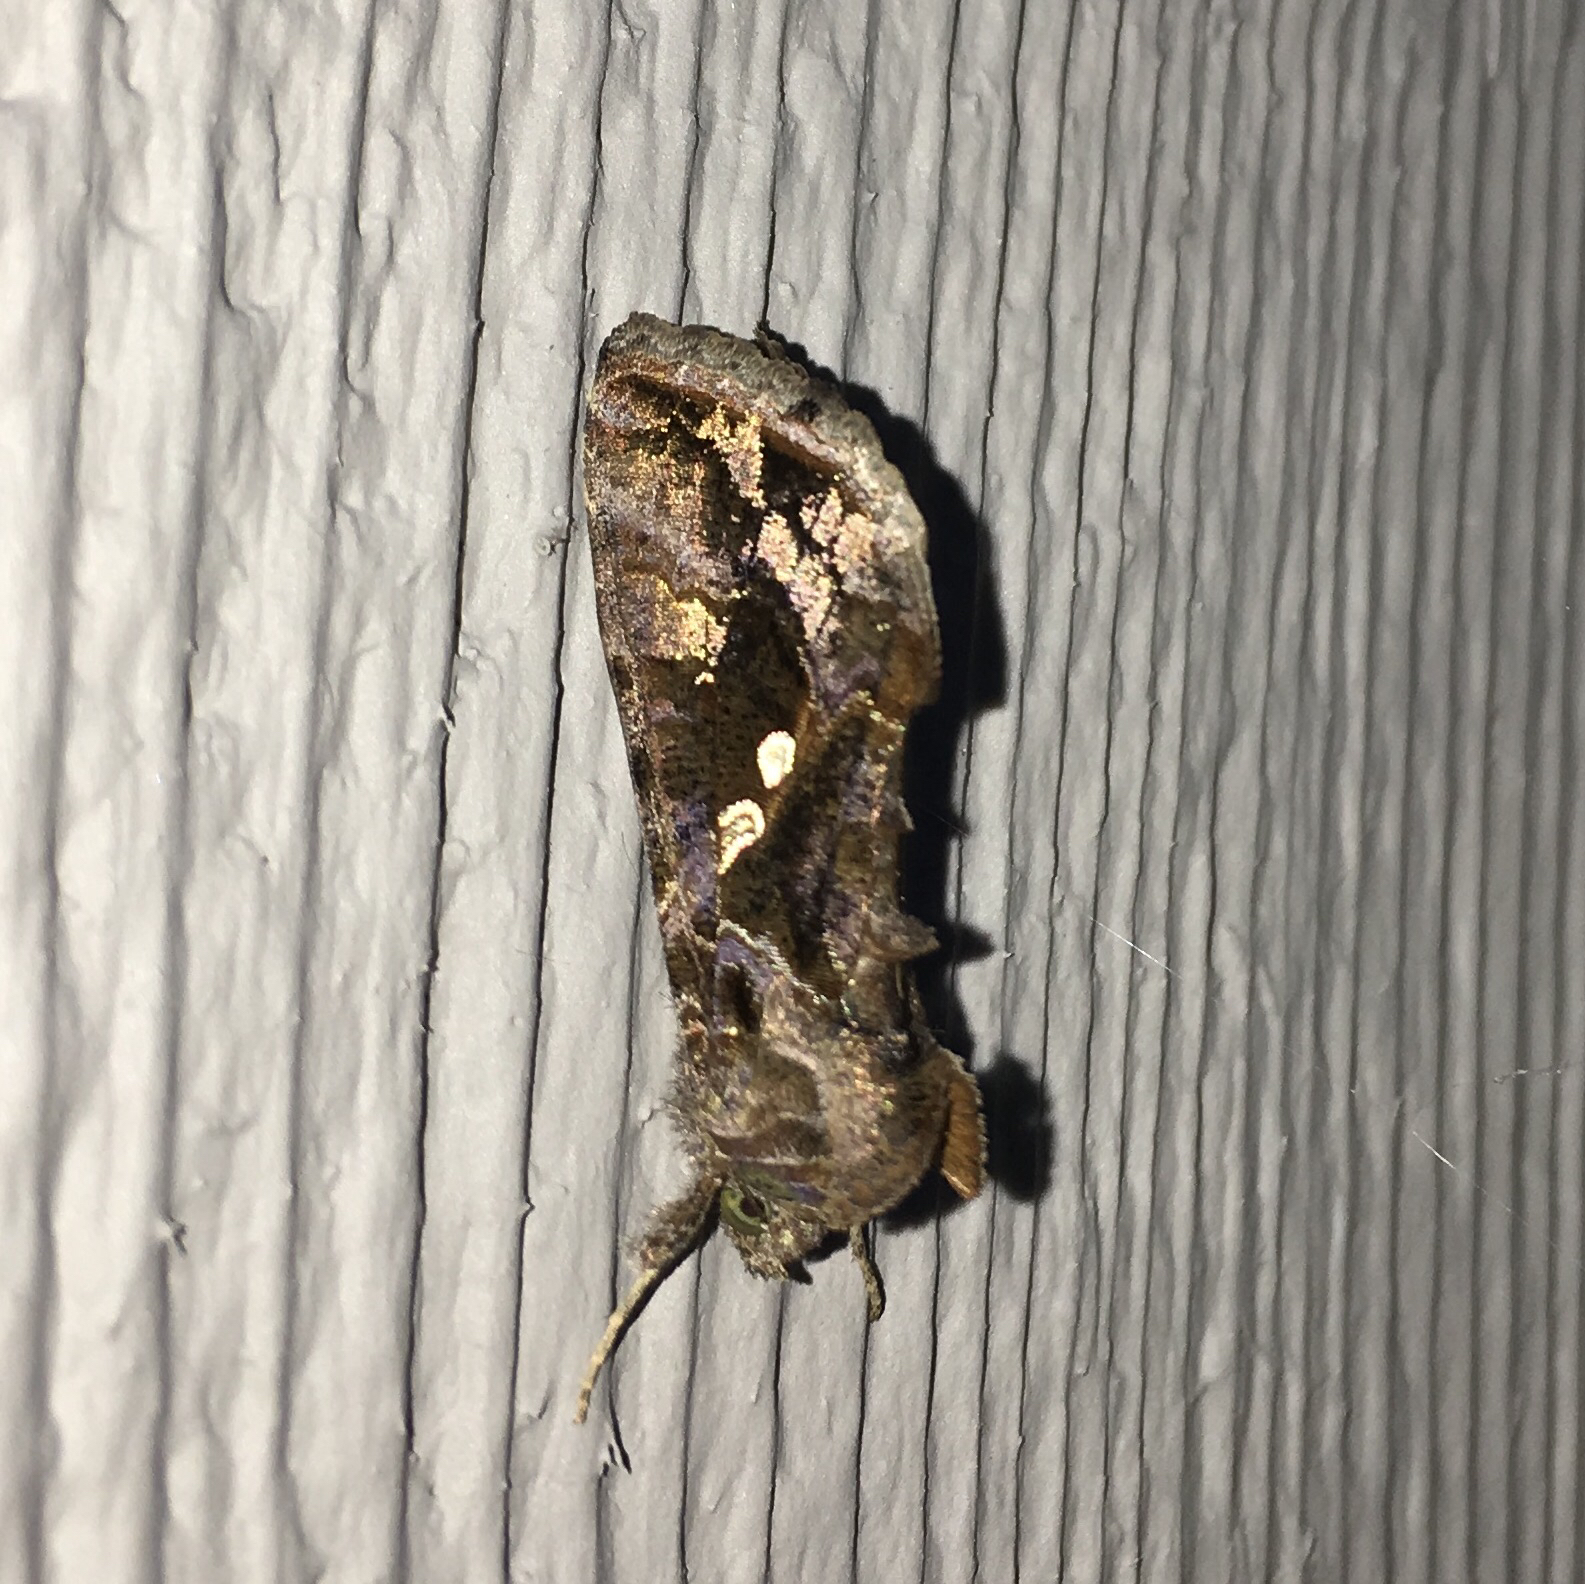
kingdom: Animalia
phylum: Arthropoda
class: Insecta
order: Lepidoptera
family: Noctuidae
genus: Chrysodeixis
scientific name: Chrysodeixis includens
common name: Cutworm moth
